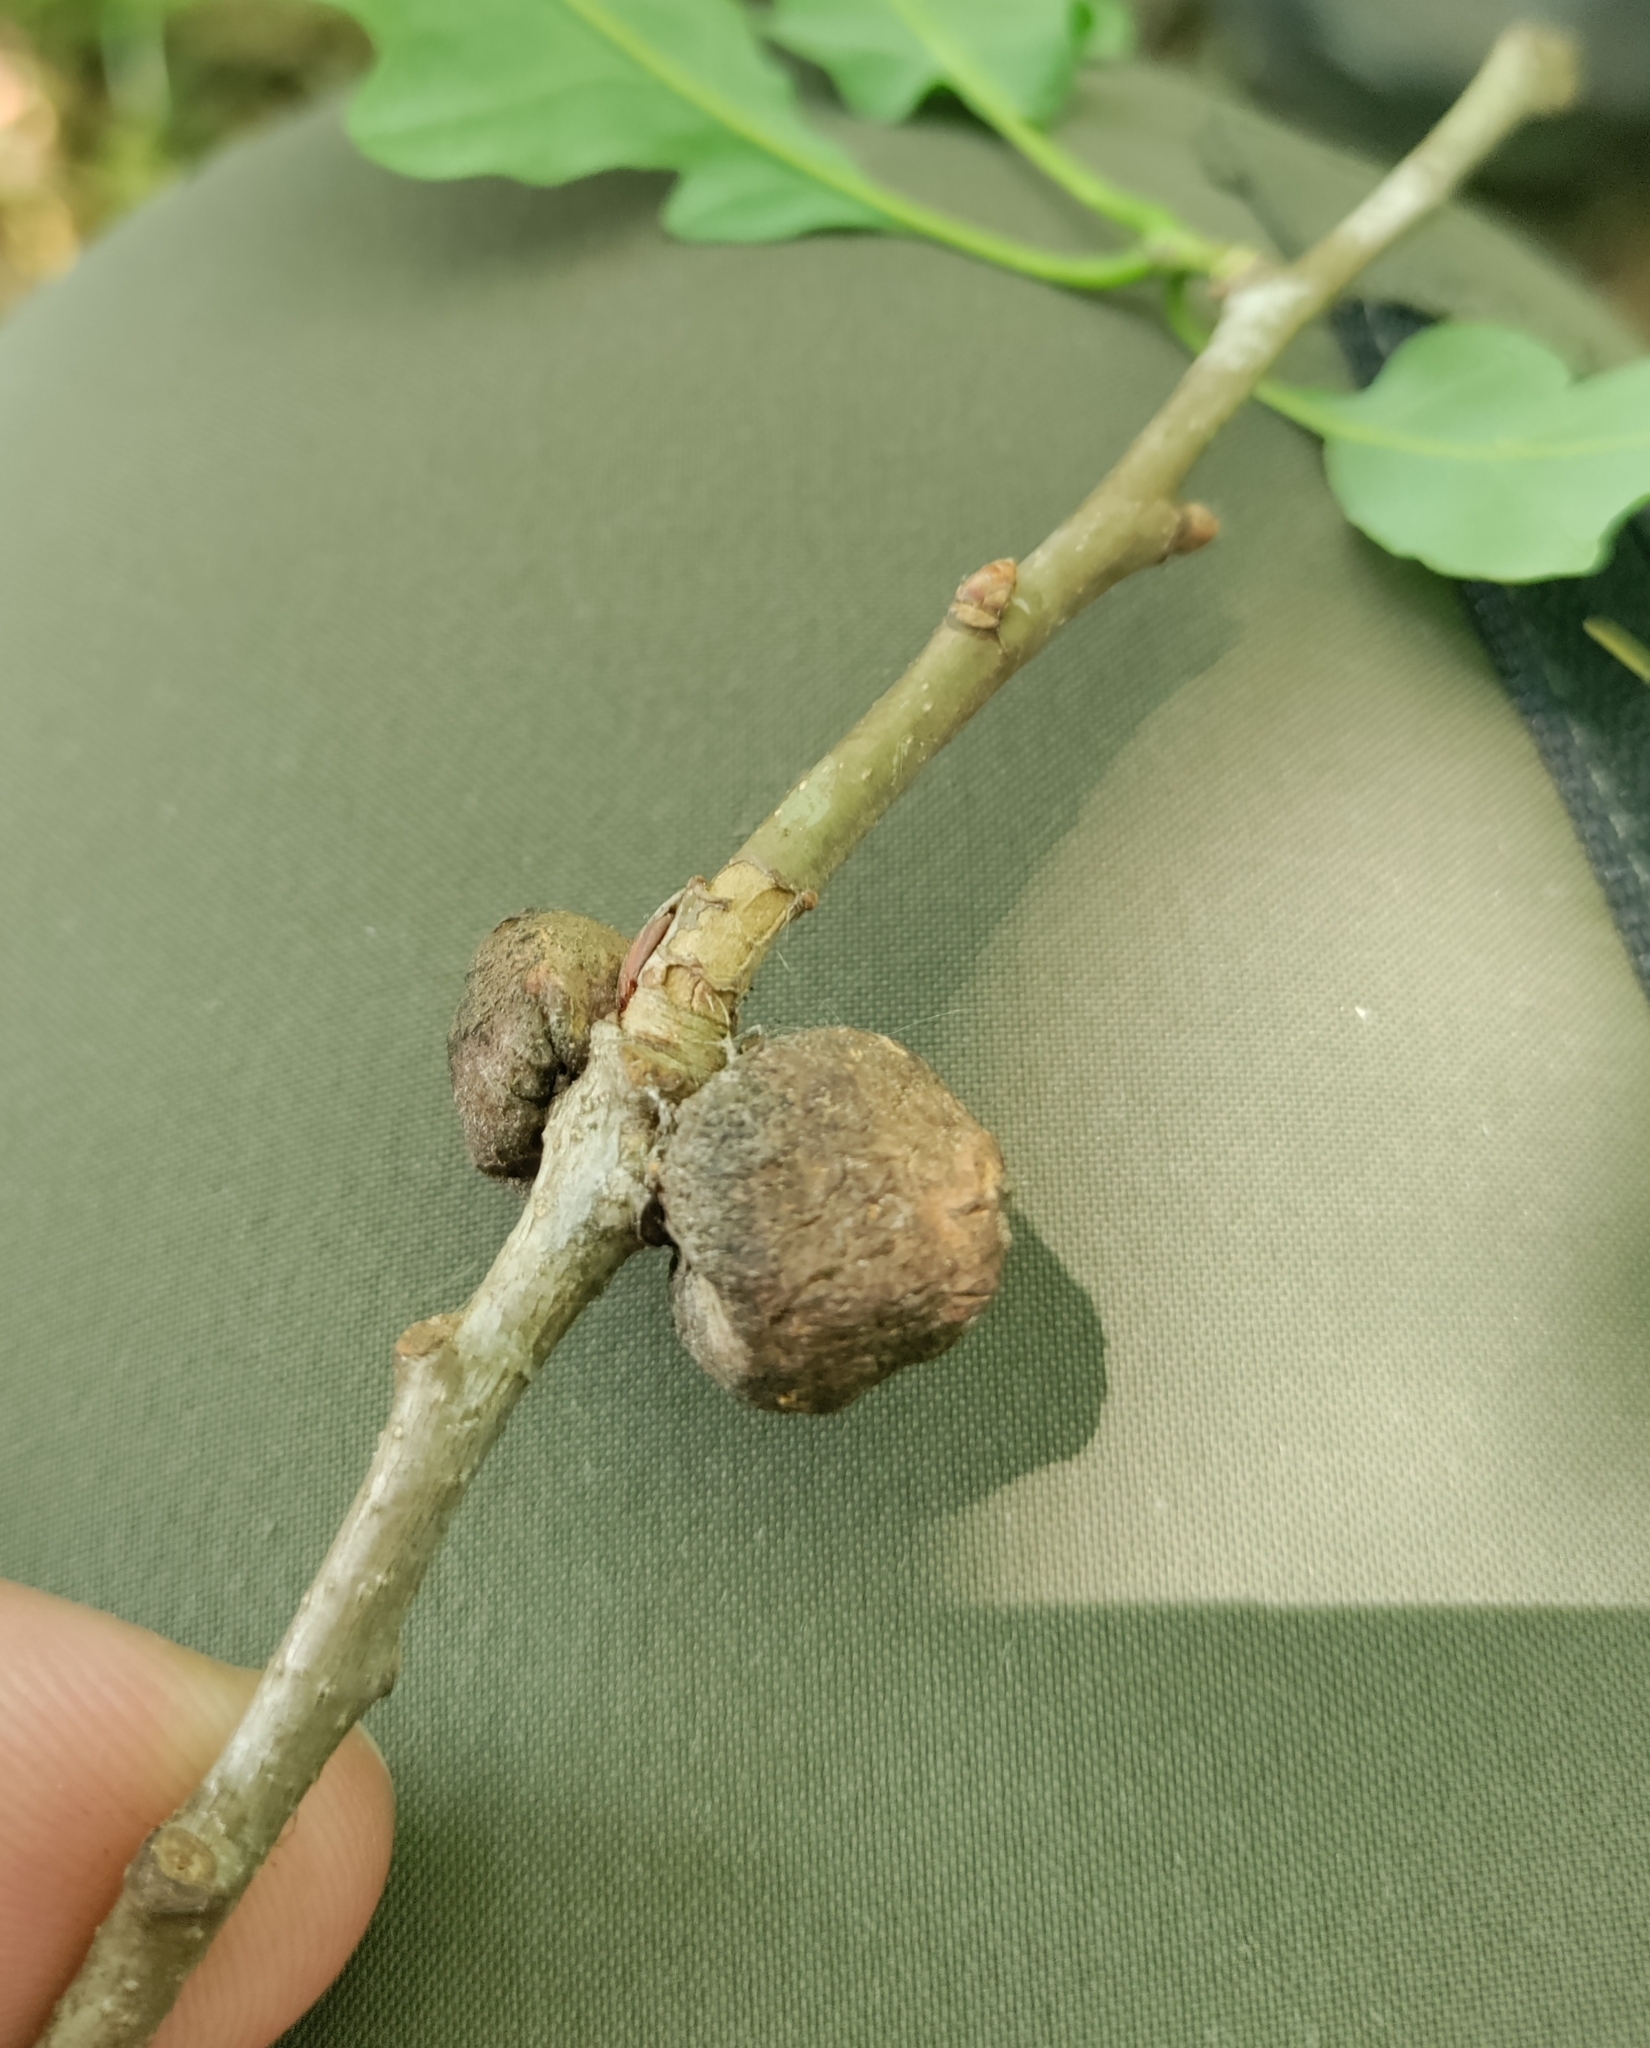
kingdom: Animalia
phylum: Arthropoda
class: Insecta
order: Hymenoptera
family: Cynipidae
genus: Andricus
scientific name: Andricus glutinosus
